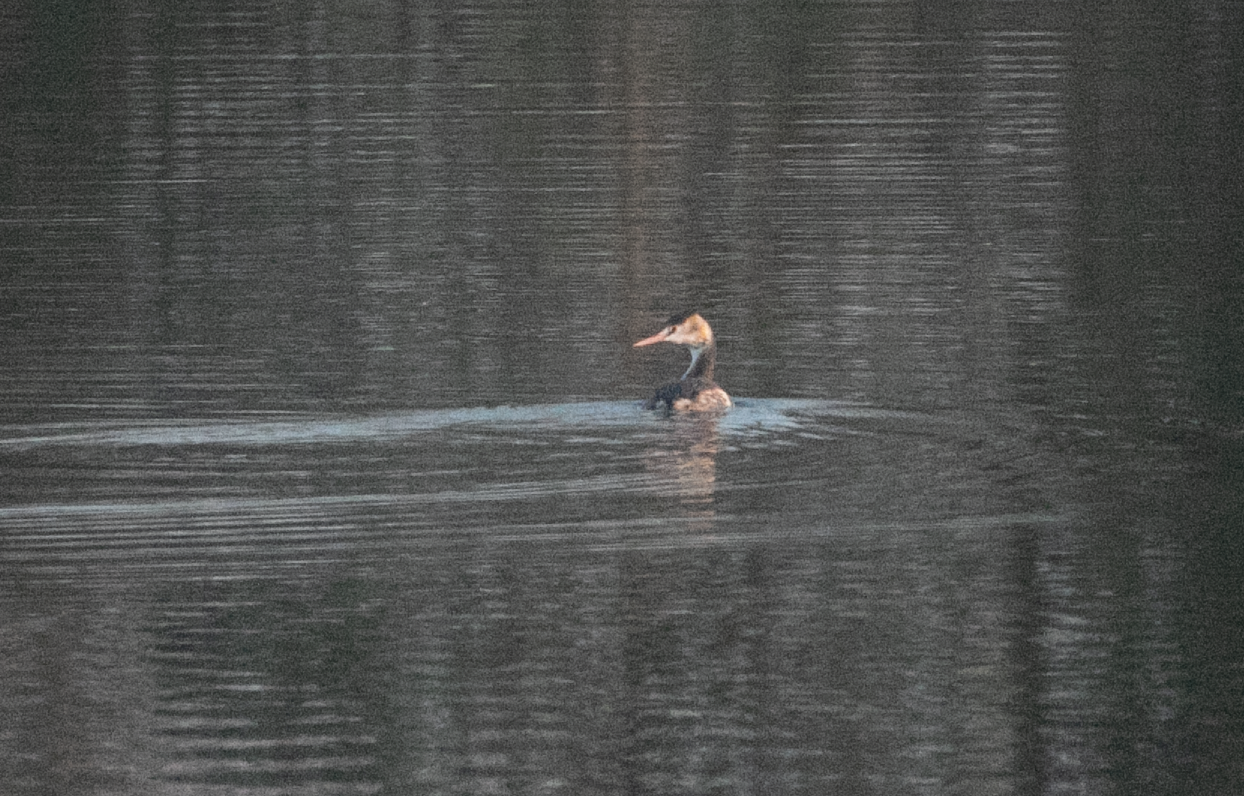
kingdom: Animalia
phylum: Chordata
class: Aves
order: Podicipediformes
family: Podicipedidae
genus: Podiceps
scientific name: Podiceps cristatus
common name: Great crested grebe
